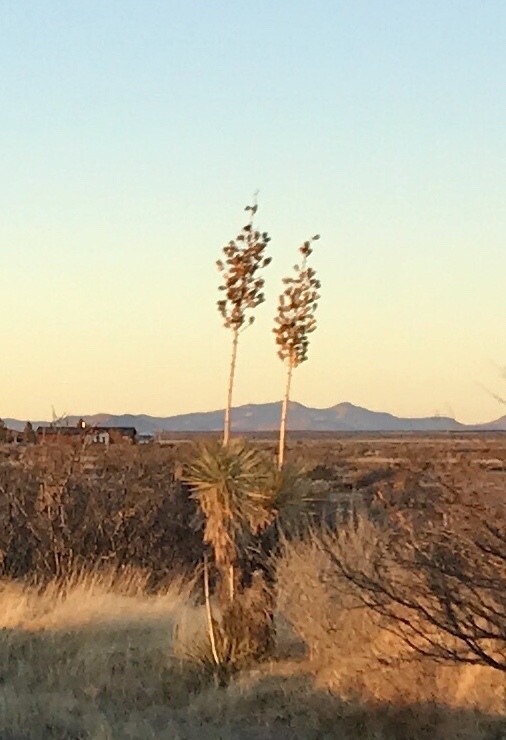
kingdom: Plantae
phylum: Tracheophyta
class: Liliopsida
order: Asparagales
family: Asparagaceae
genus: Yucca
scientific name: Yucca elata
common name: Palmella
